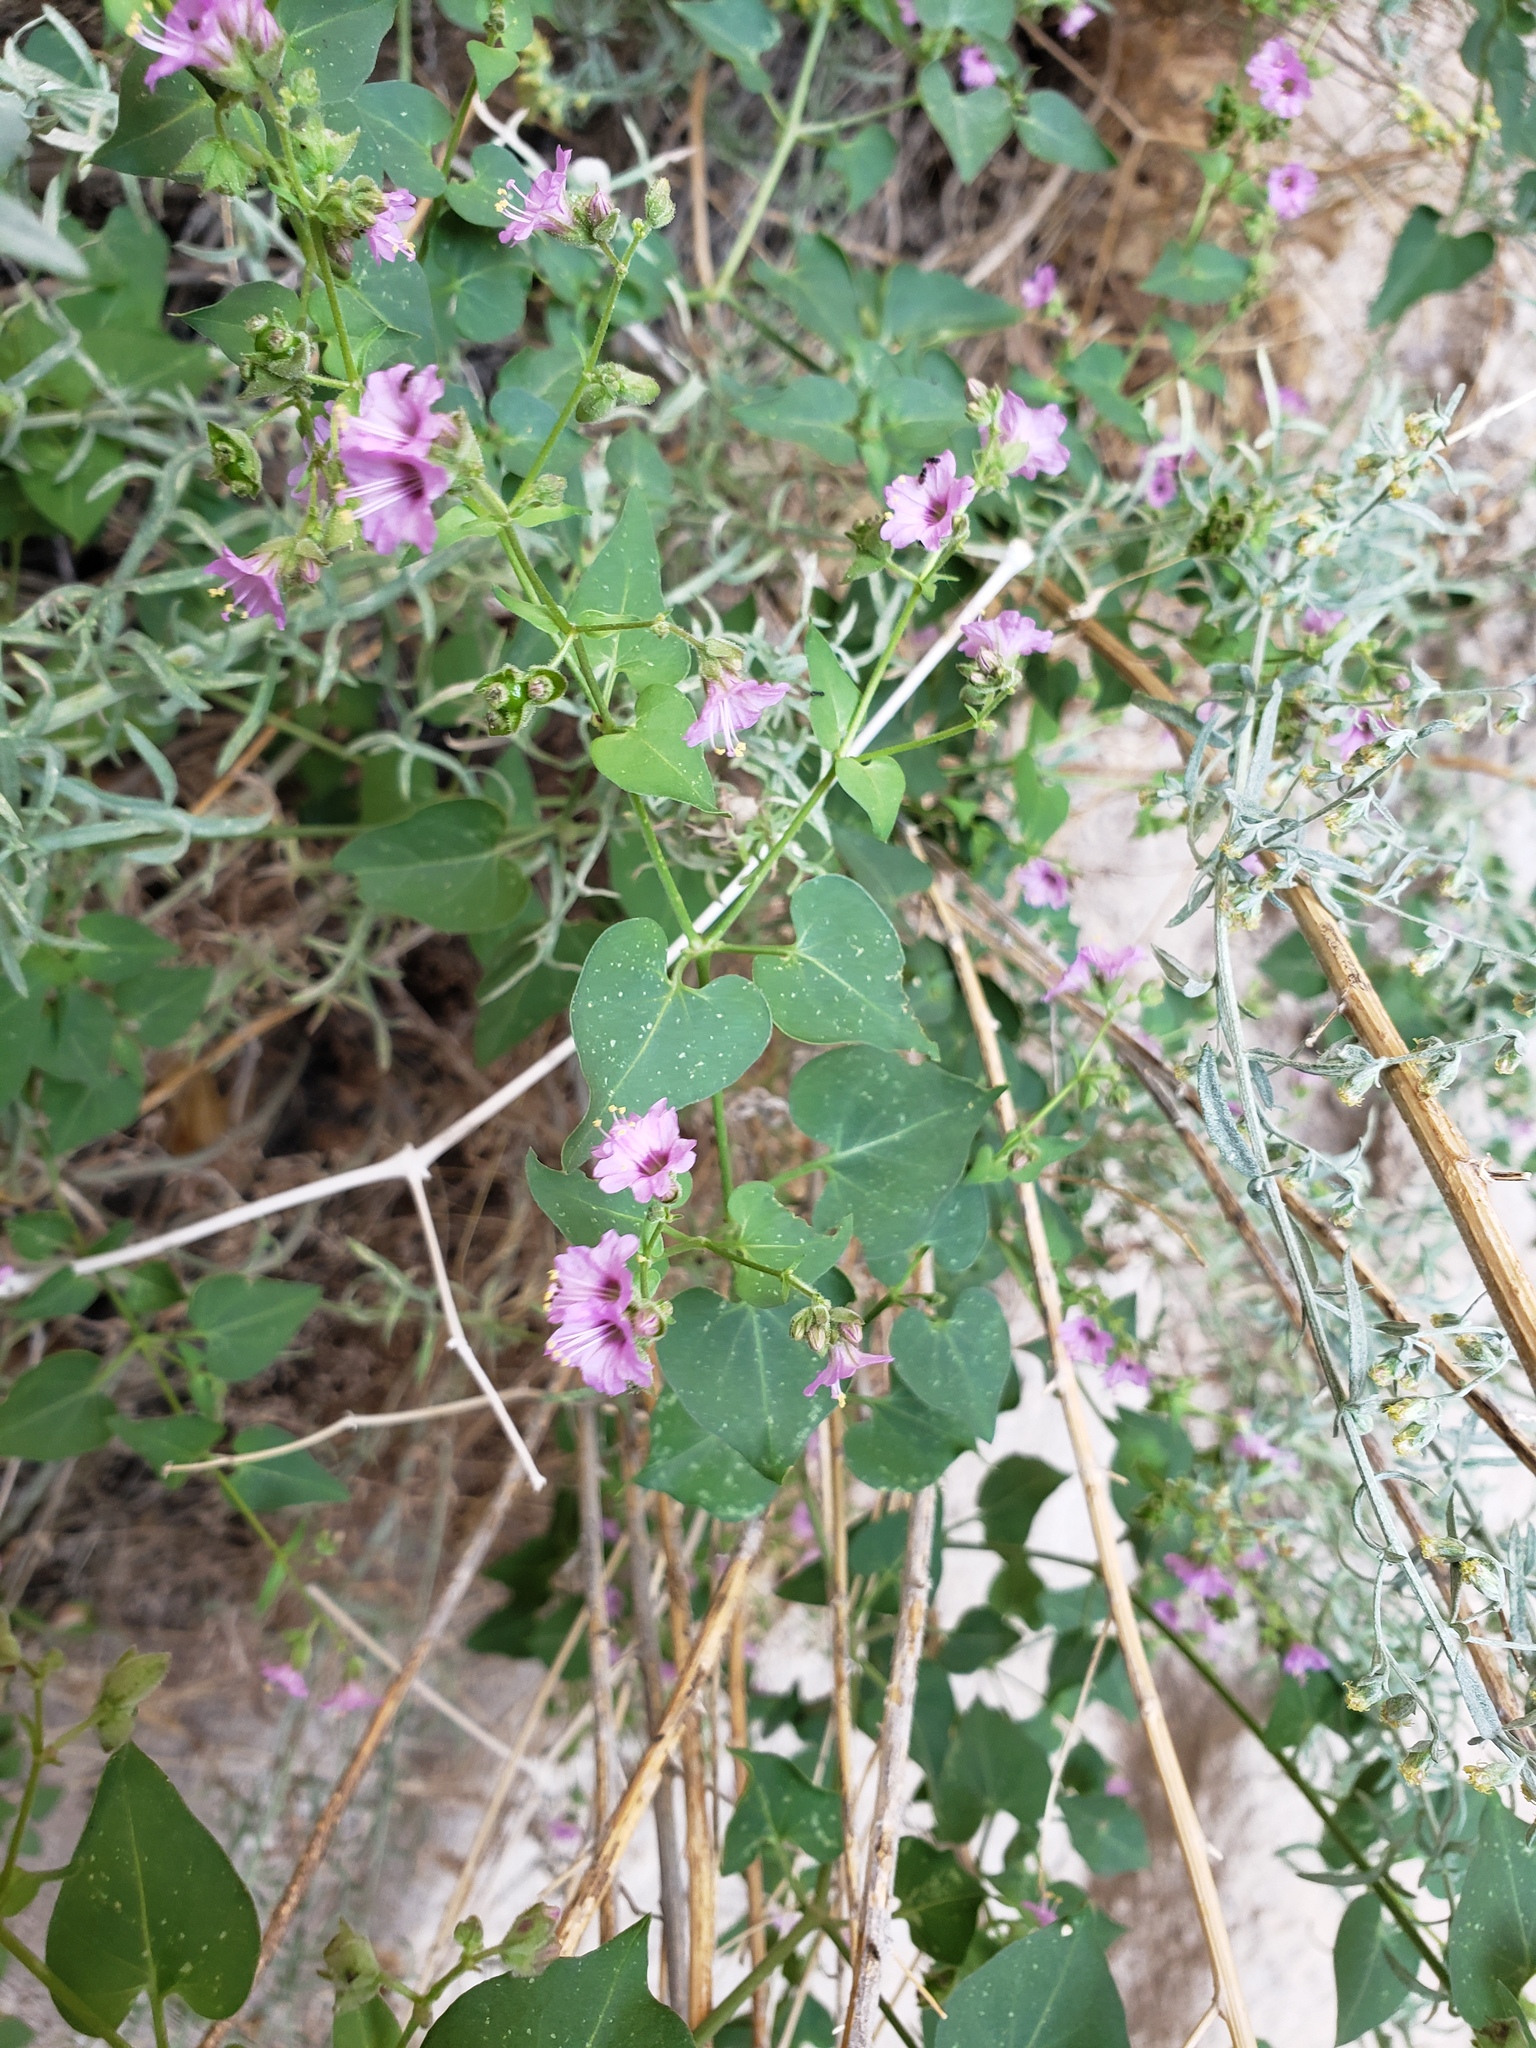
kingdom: Plantae
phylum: Tracheophyta
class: Magnoliopsida
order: Caryophyllales
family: Nyctaginaceae
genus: Mirabilis
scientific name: Mirabilis oxybaphoides
